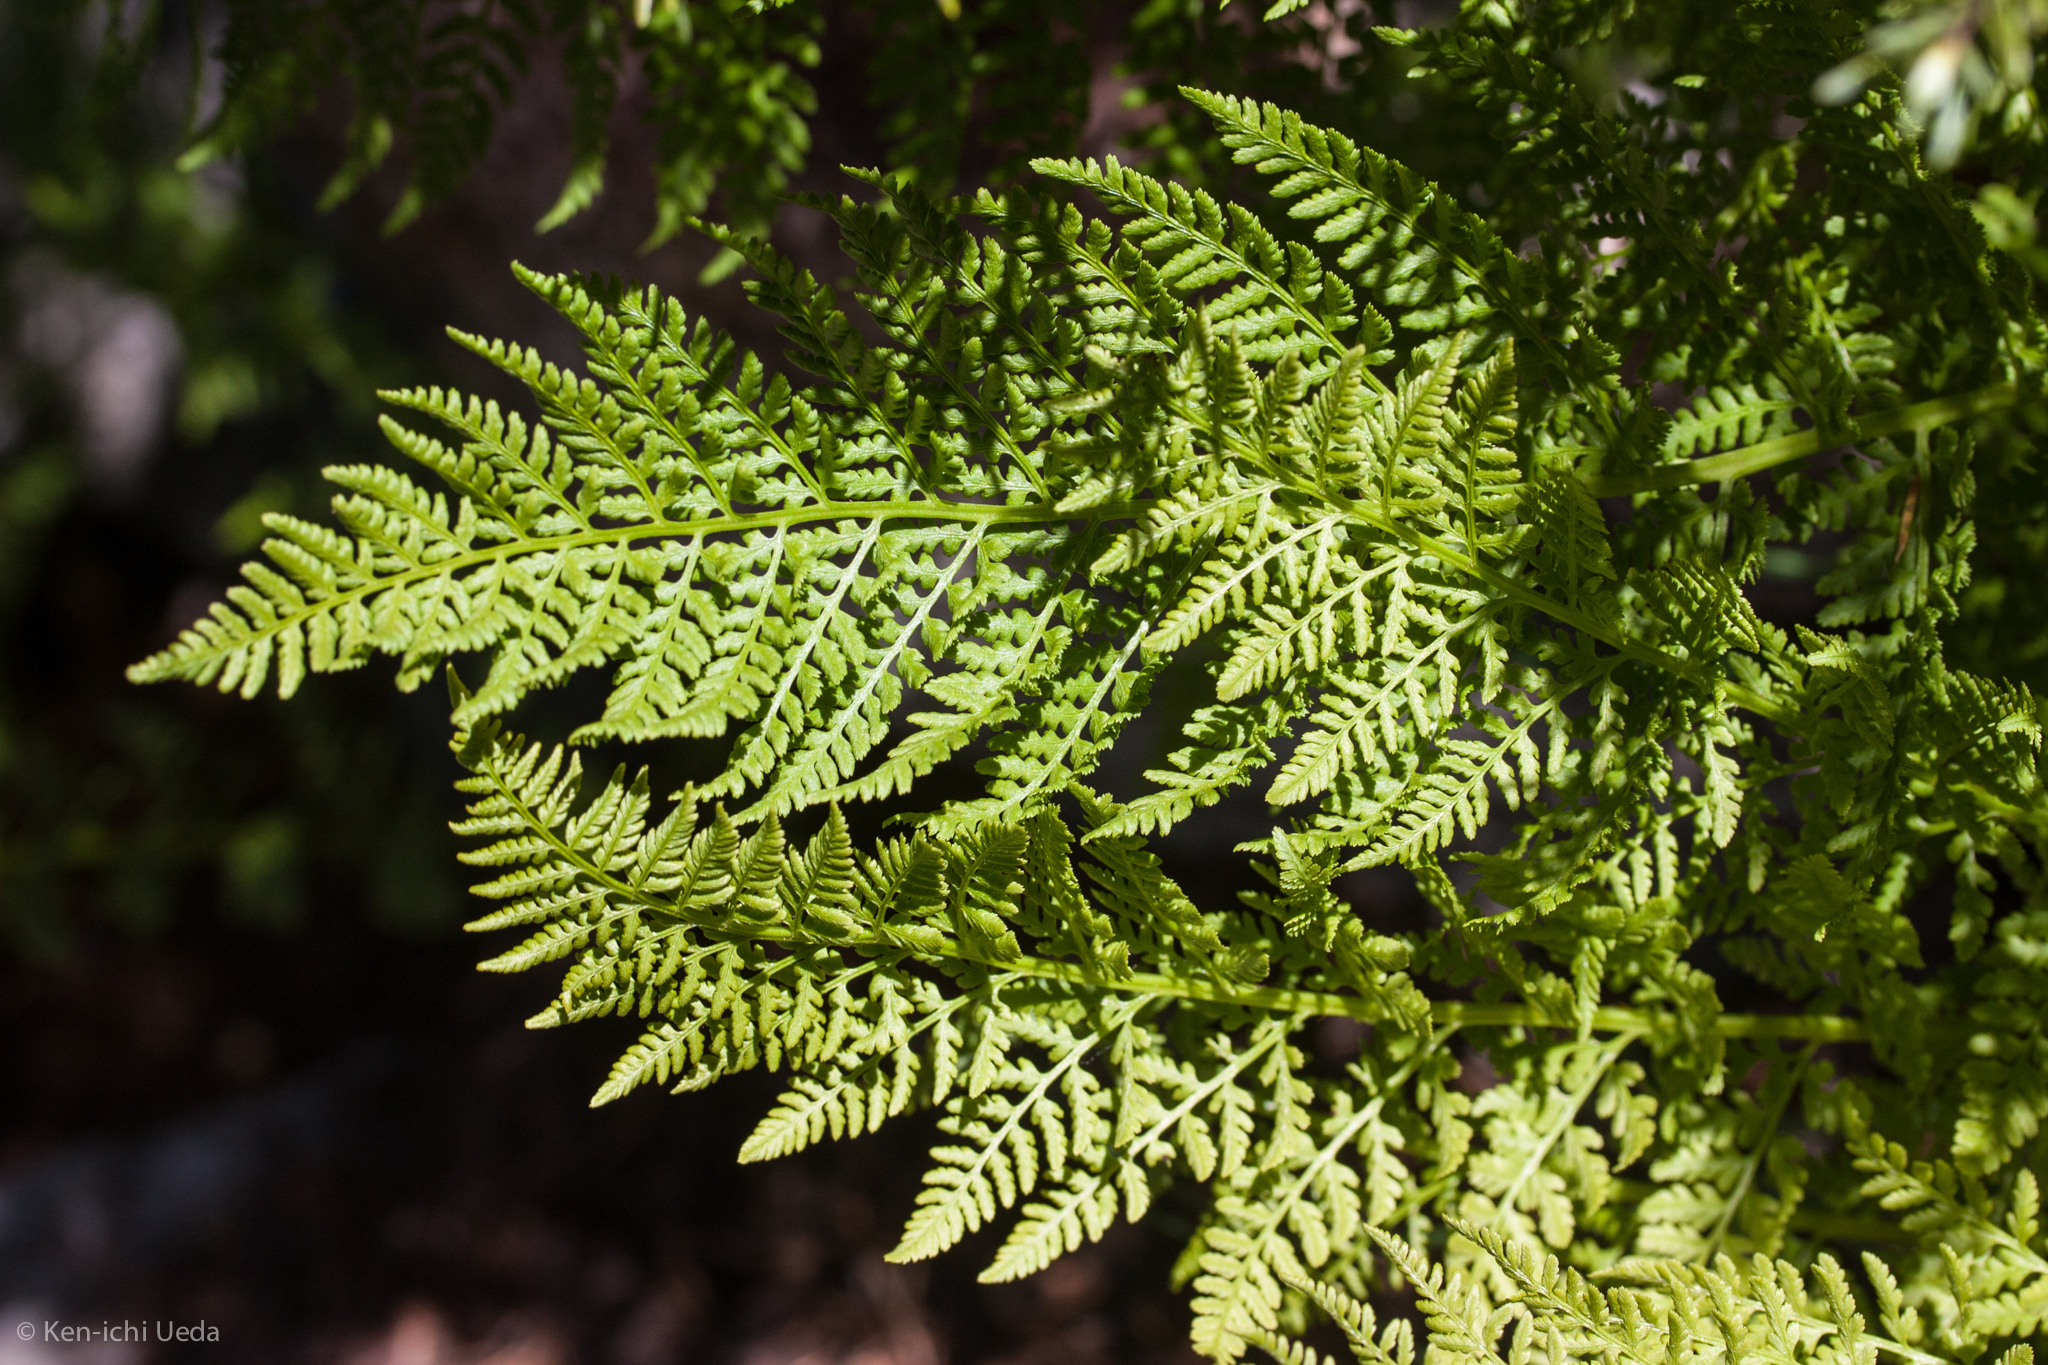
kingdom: Plantae
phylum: Tracheophyta
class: Polypodiopsida
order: Polypodiales
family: Athyriaceae
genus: Athyrium
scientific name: Athyrium americanum
